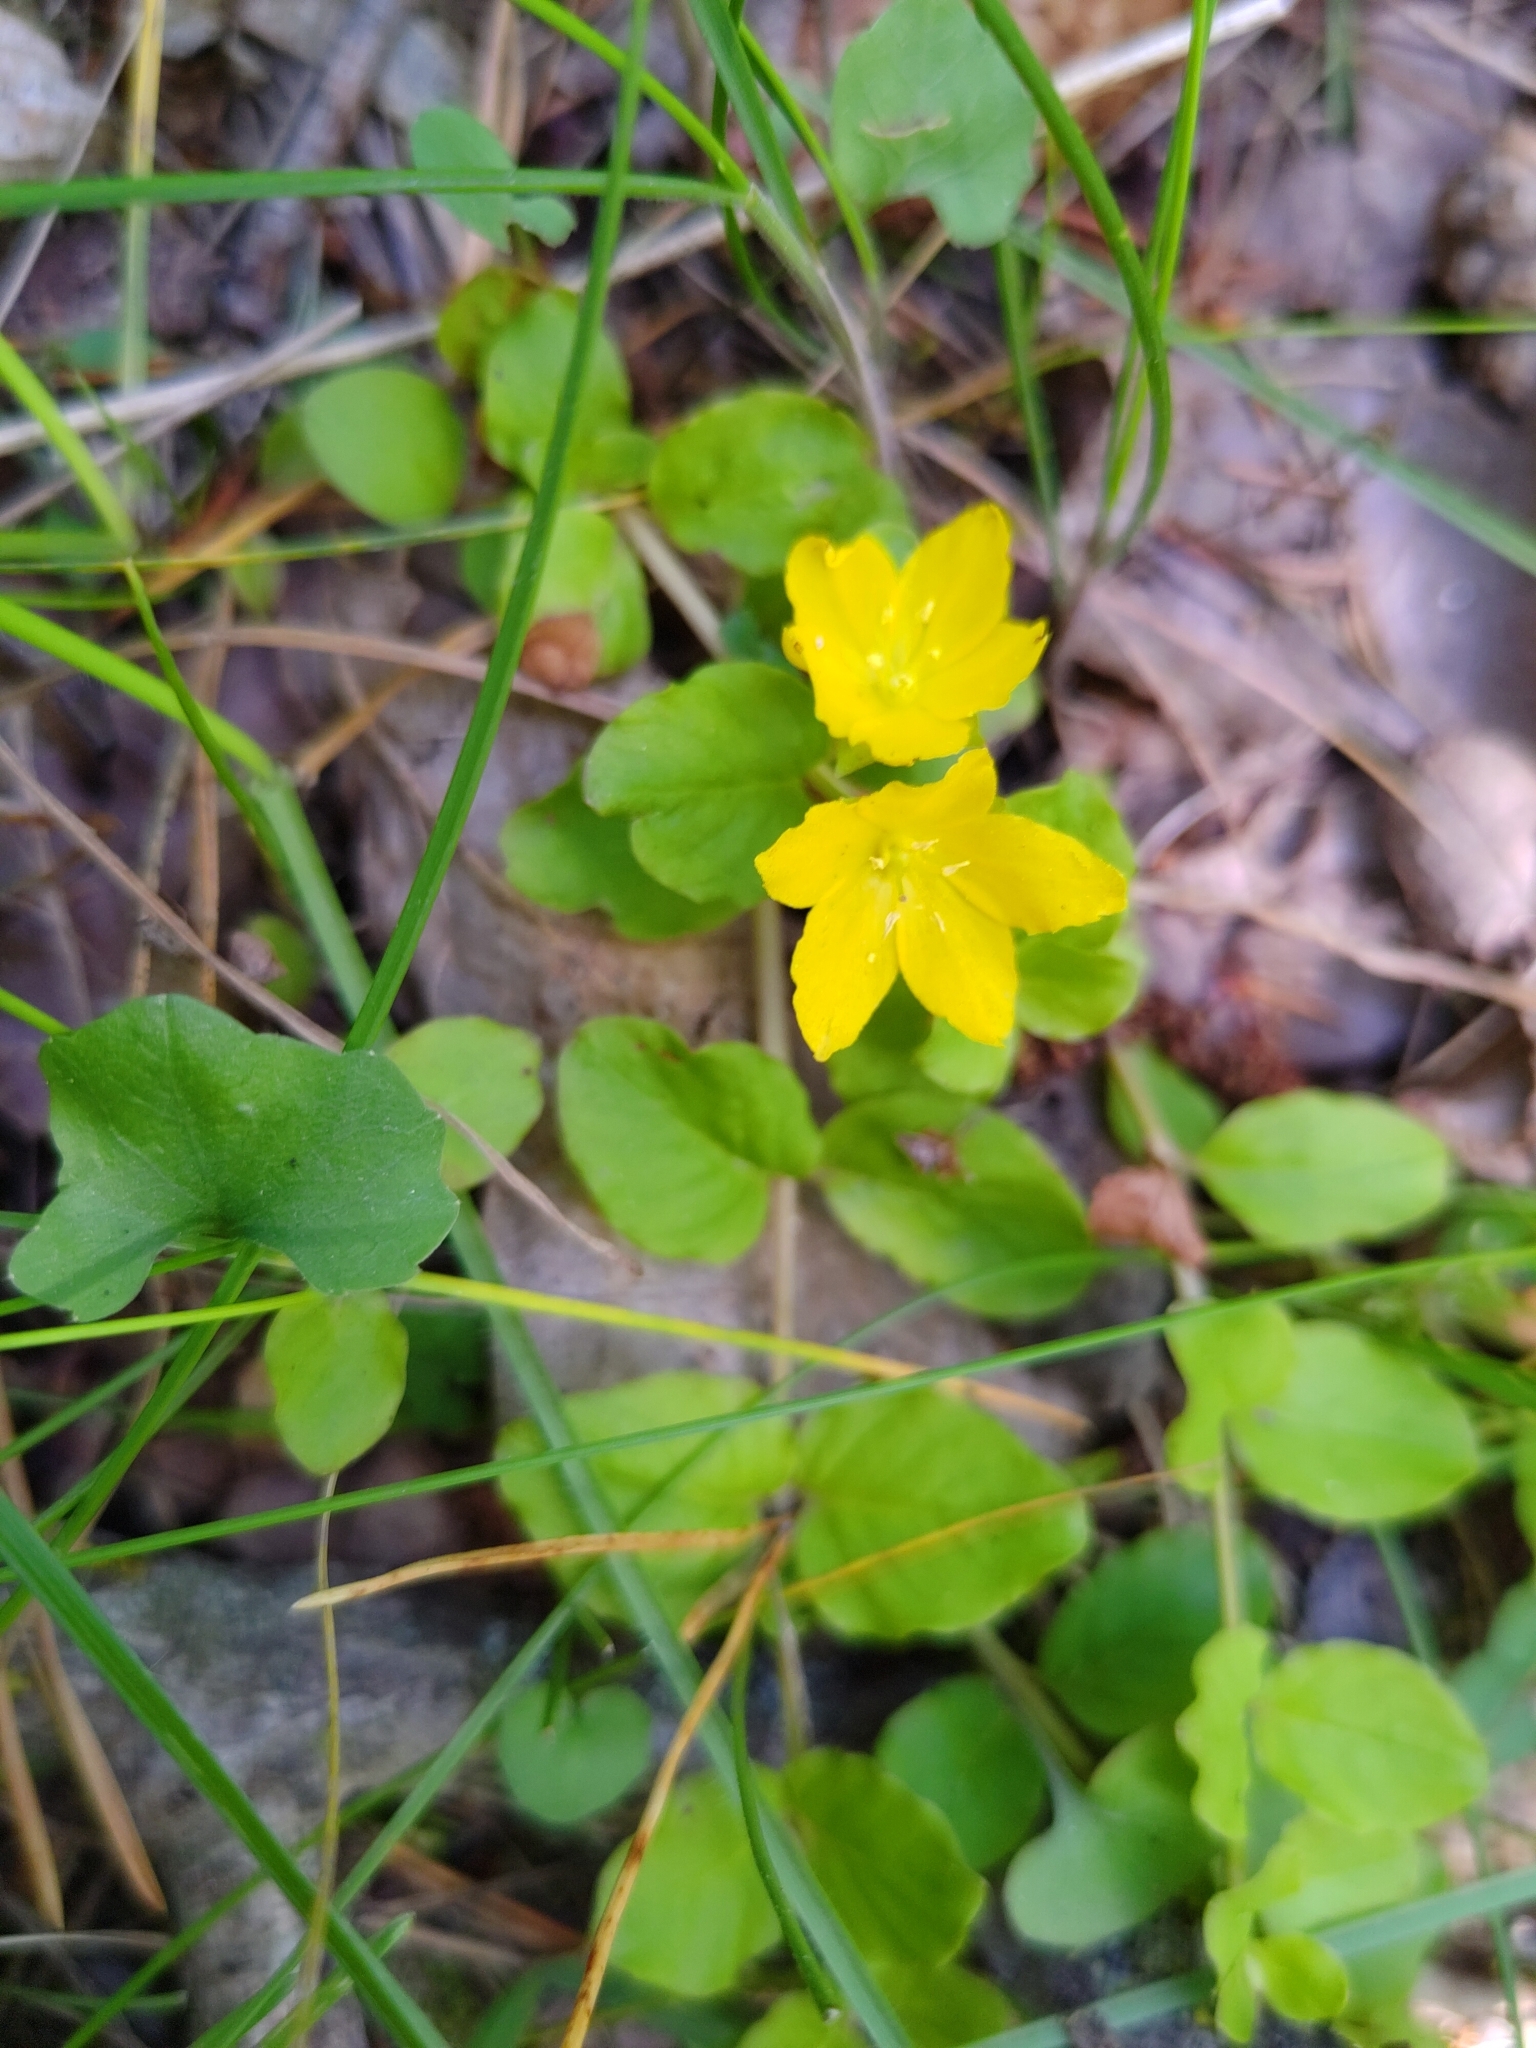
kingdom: Plantae
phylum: Tracheophyta
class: Magnoliopsida
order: Ericales
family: Primulaceae
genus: Lysimachia
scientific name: Lysimachia nummularia
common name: Moneywort
